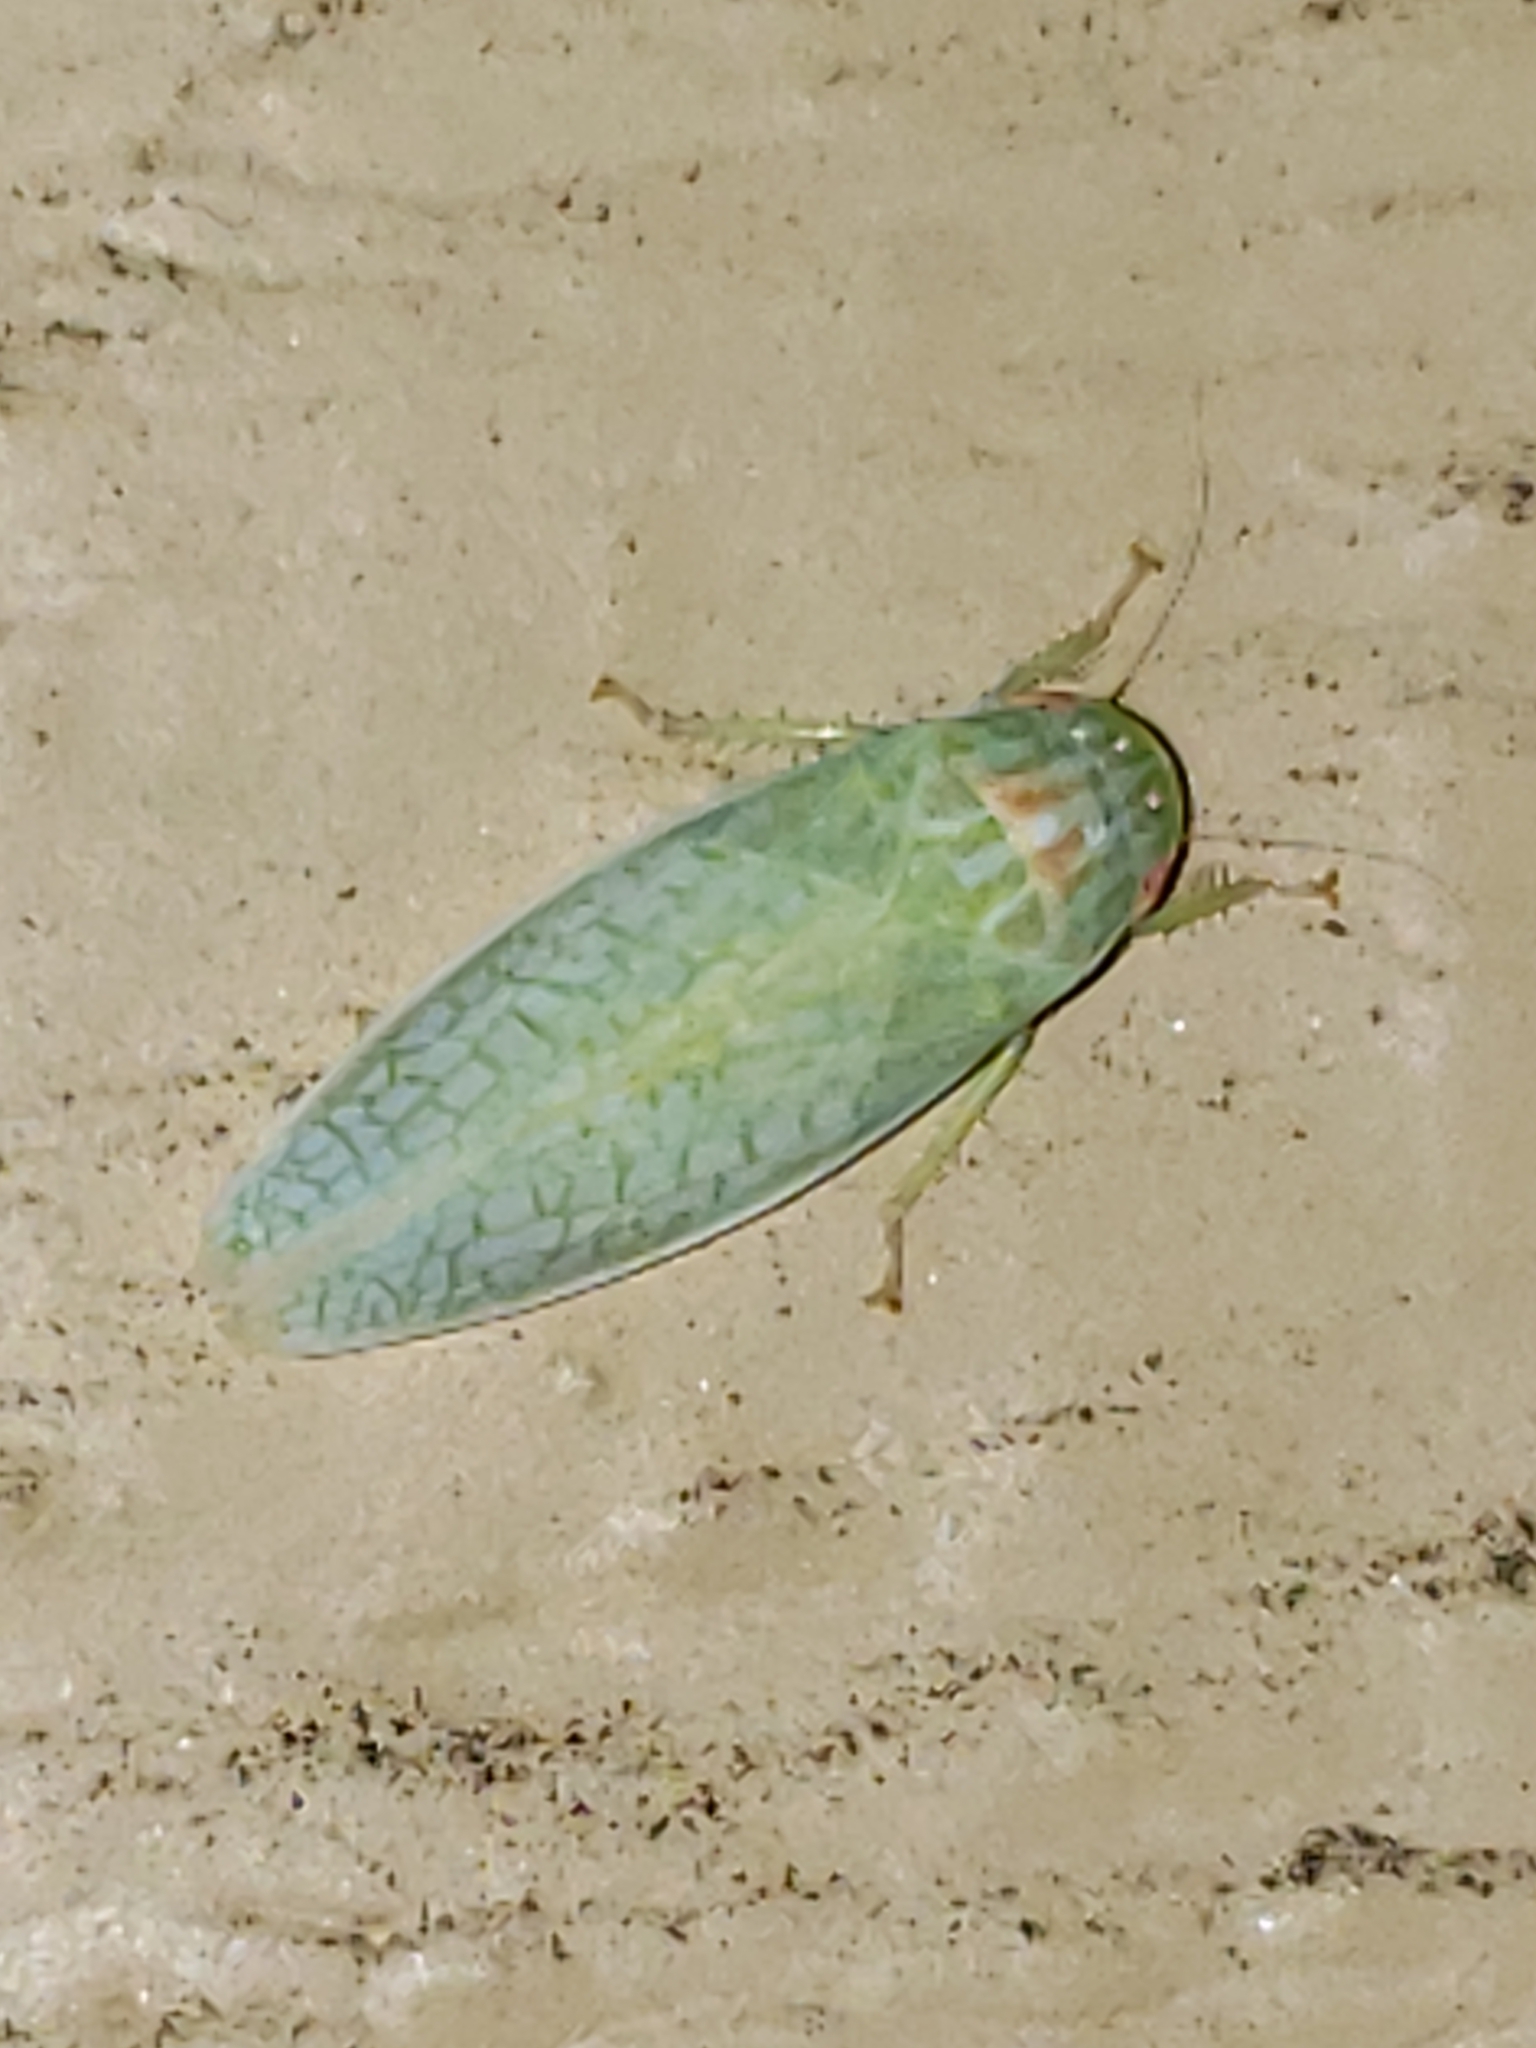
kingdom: Animalia
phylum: Arthropoda
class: Insecta
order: Hemiptera
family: Cicadellidae
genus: Gyponana
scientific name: Gyponana octolineata
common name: Eight-lined leafhopper
